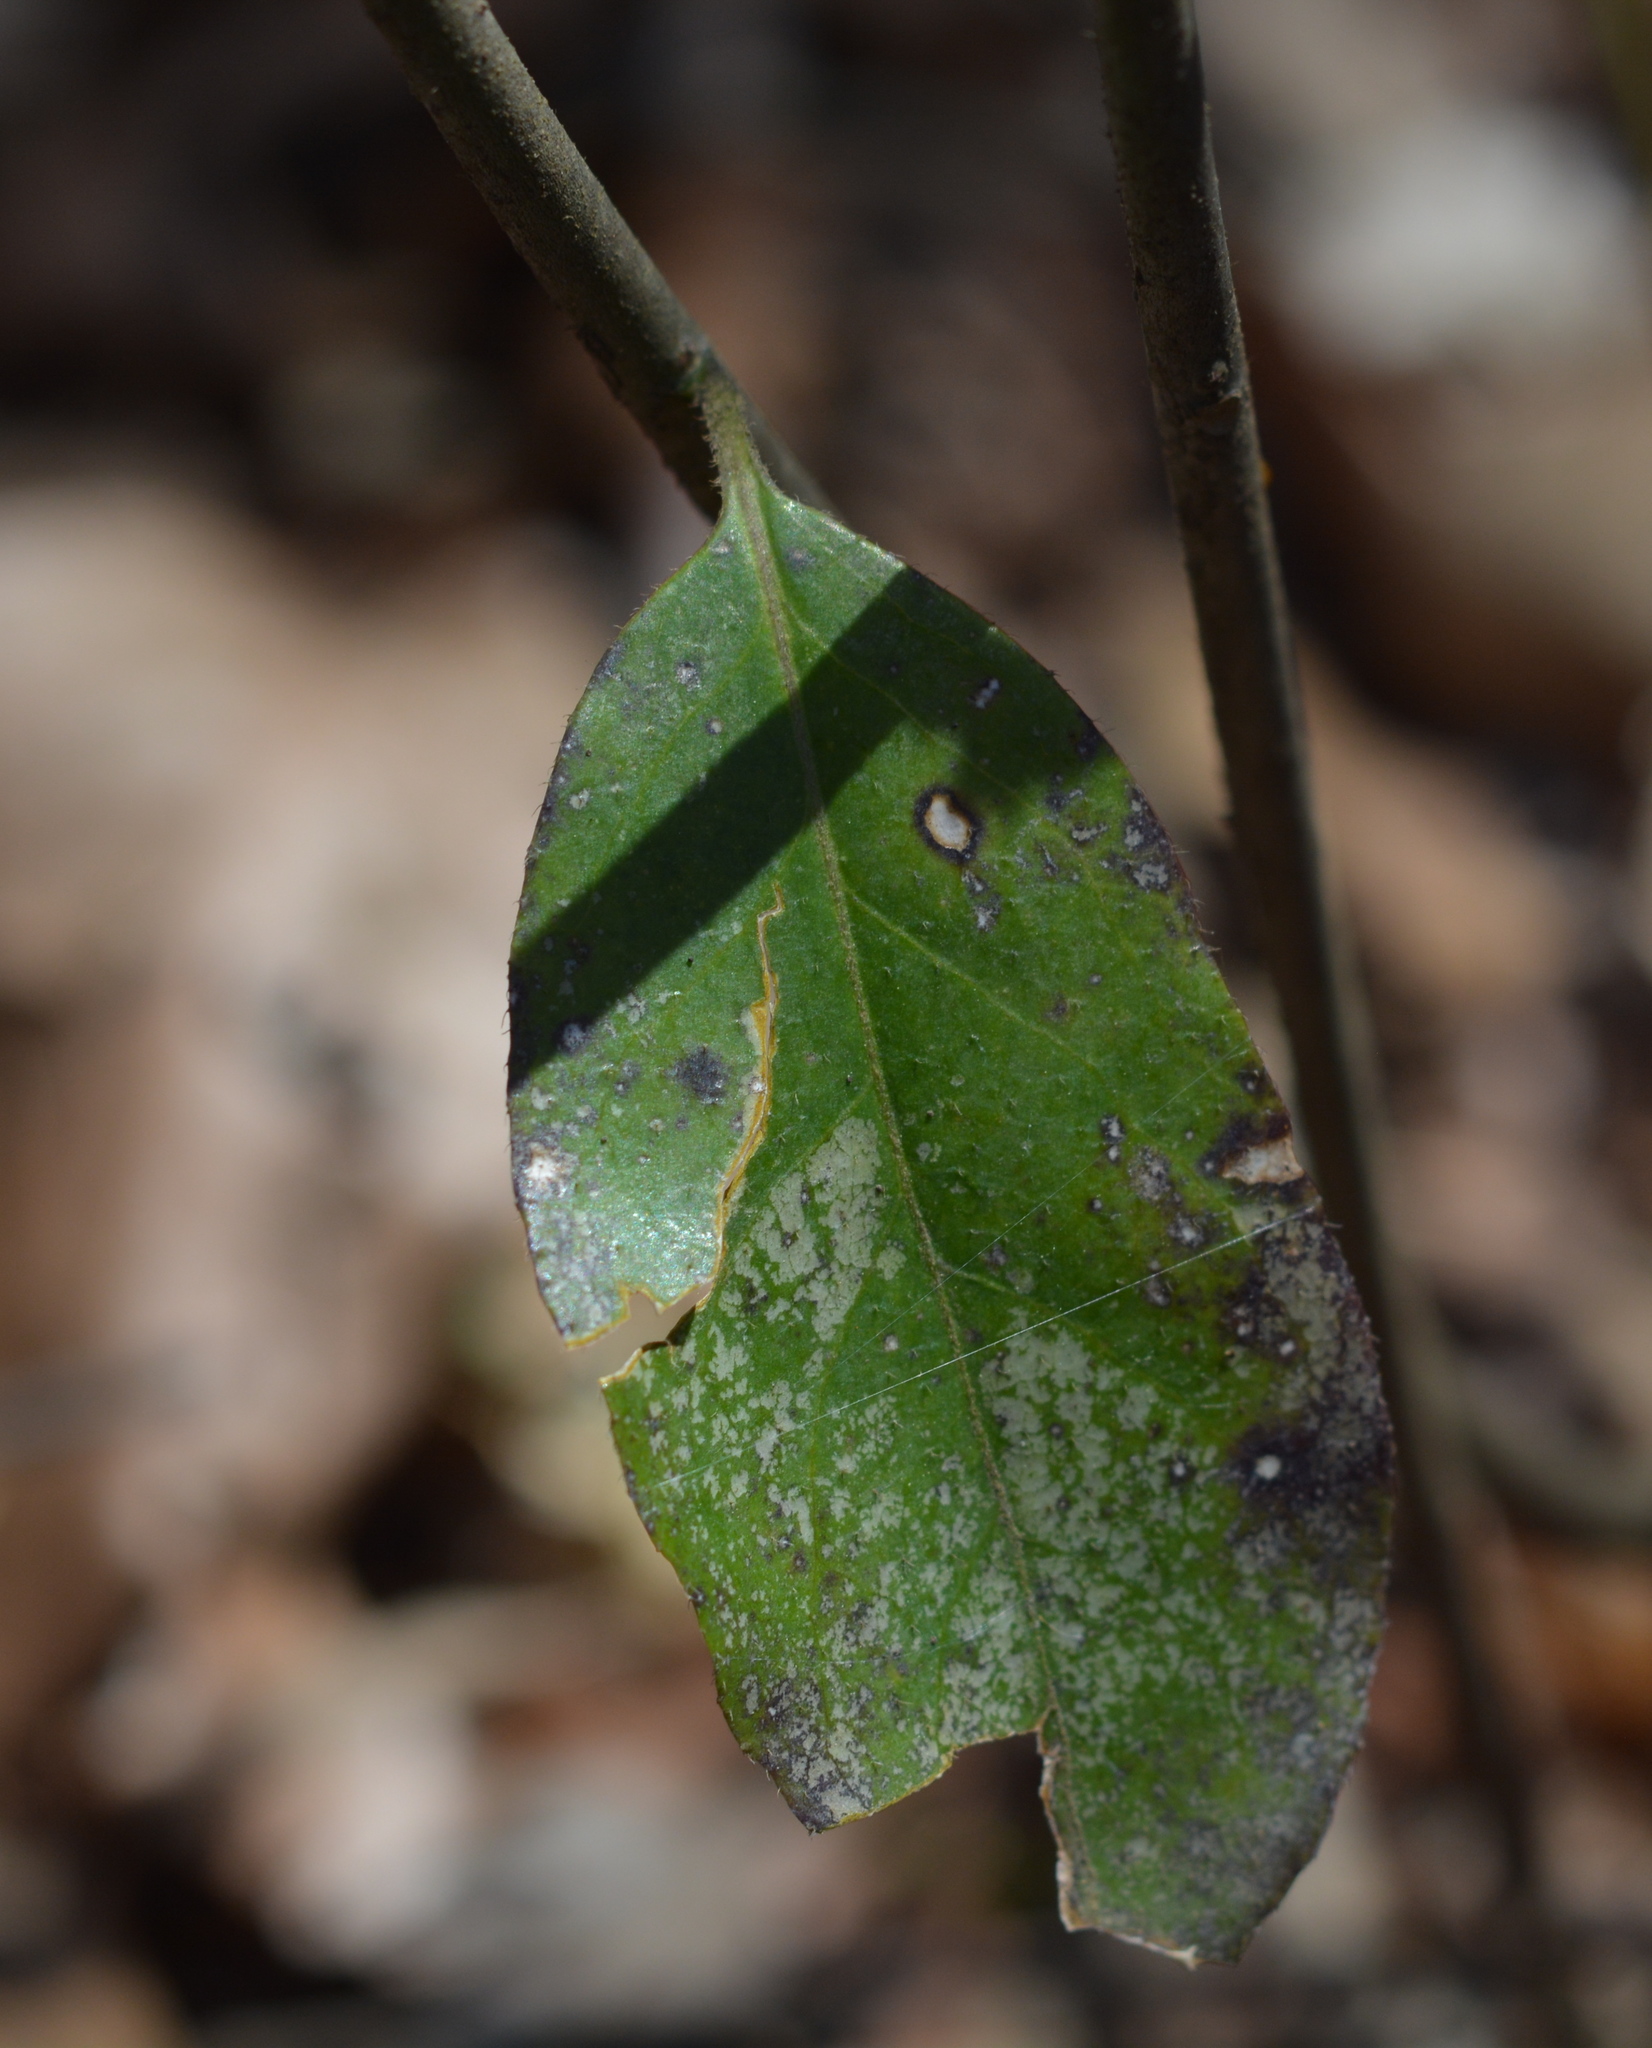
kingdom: Plantae
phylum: Tracheophyta
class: Magnoliopsida
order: Ericales
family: Symplocaceae
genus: Symplocos
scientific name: Symplocos tinctoria
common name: Horse-sugar
